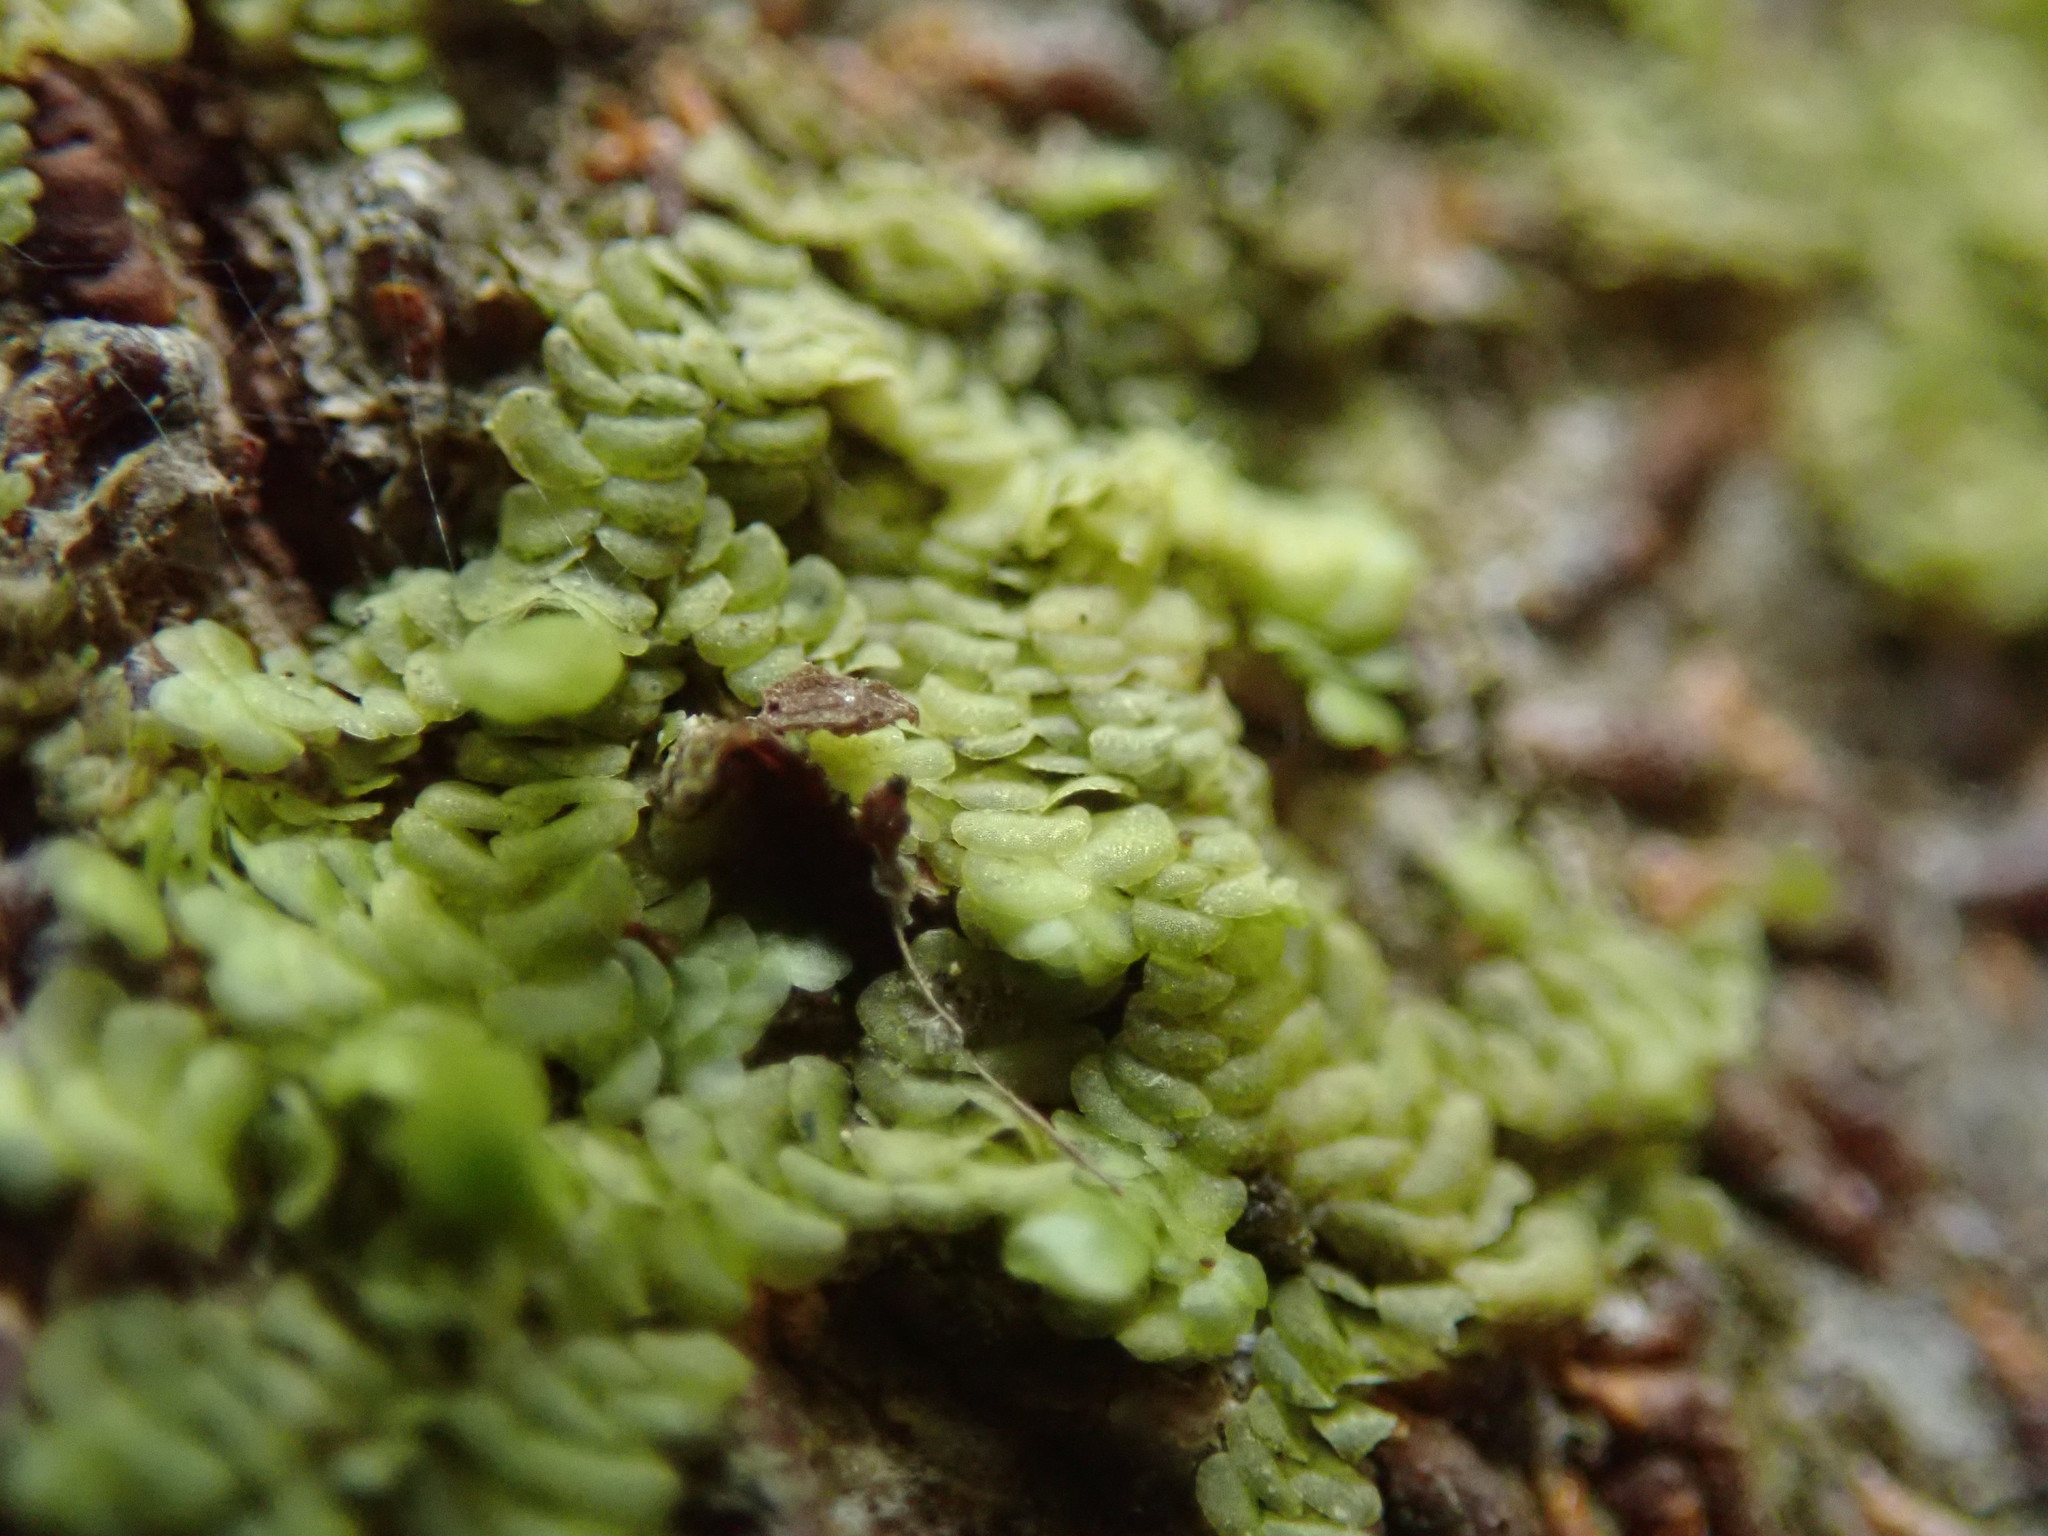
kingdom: Plantae
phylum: Marchantiophyta
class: Jungermanniopsida
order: Porellales
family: Radulaceae
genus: Radula
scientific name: Radula complanata
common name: Flat-leaved scalewort
